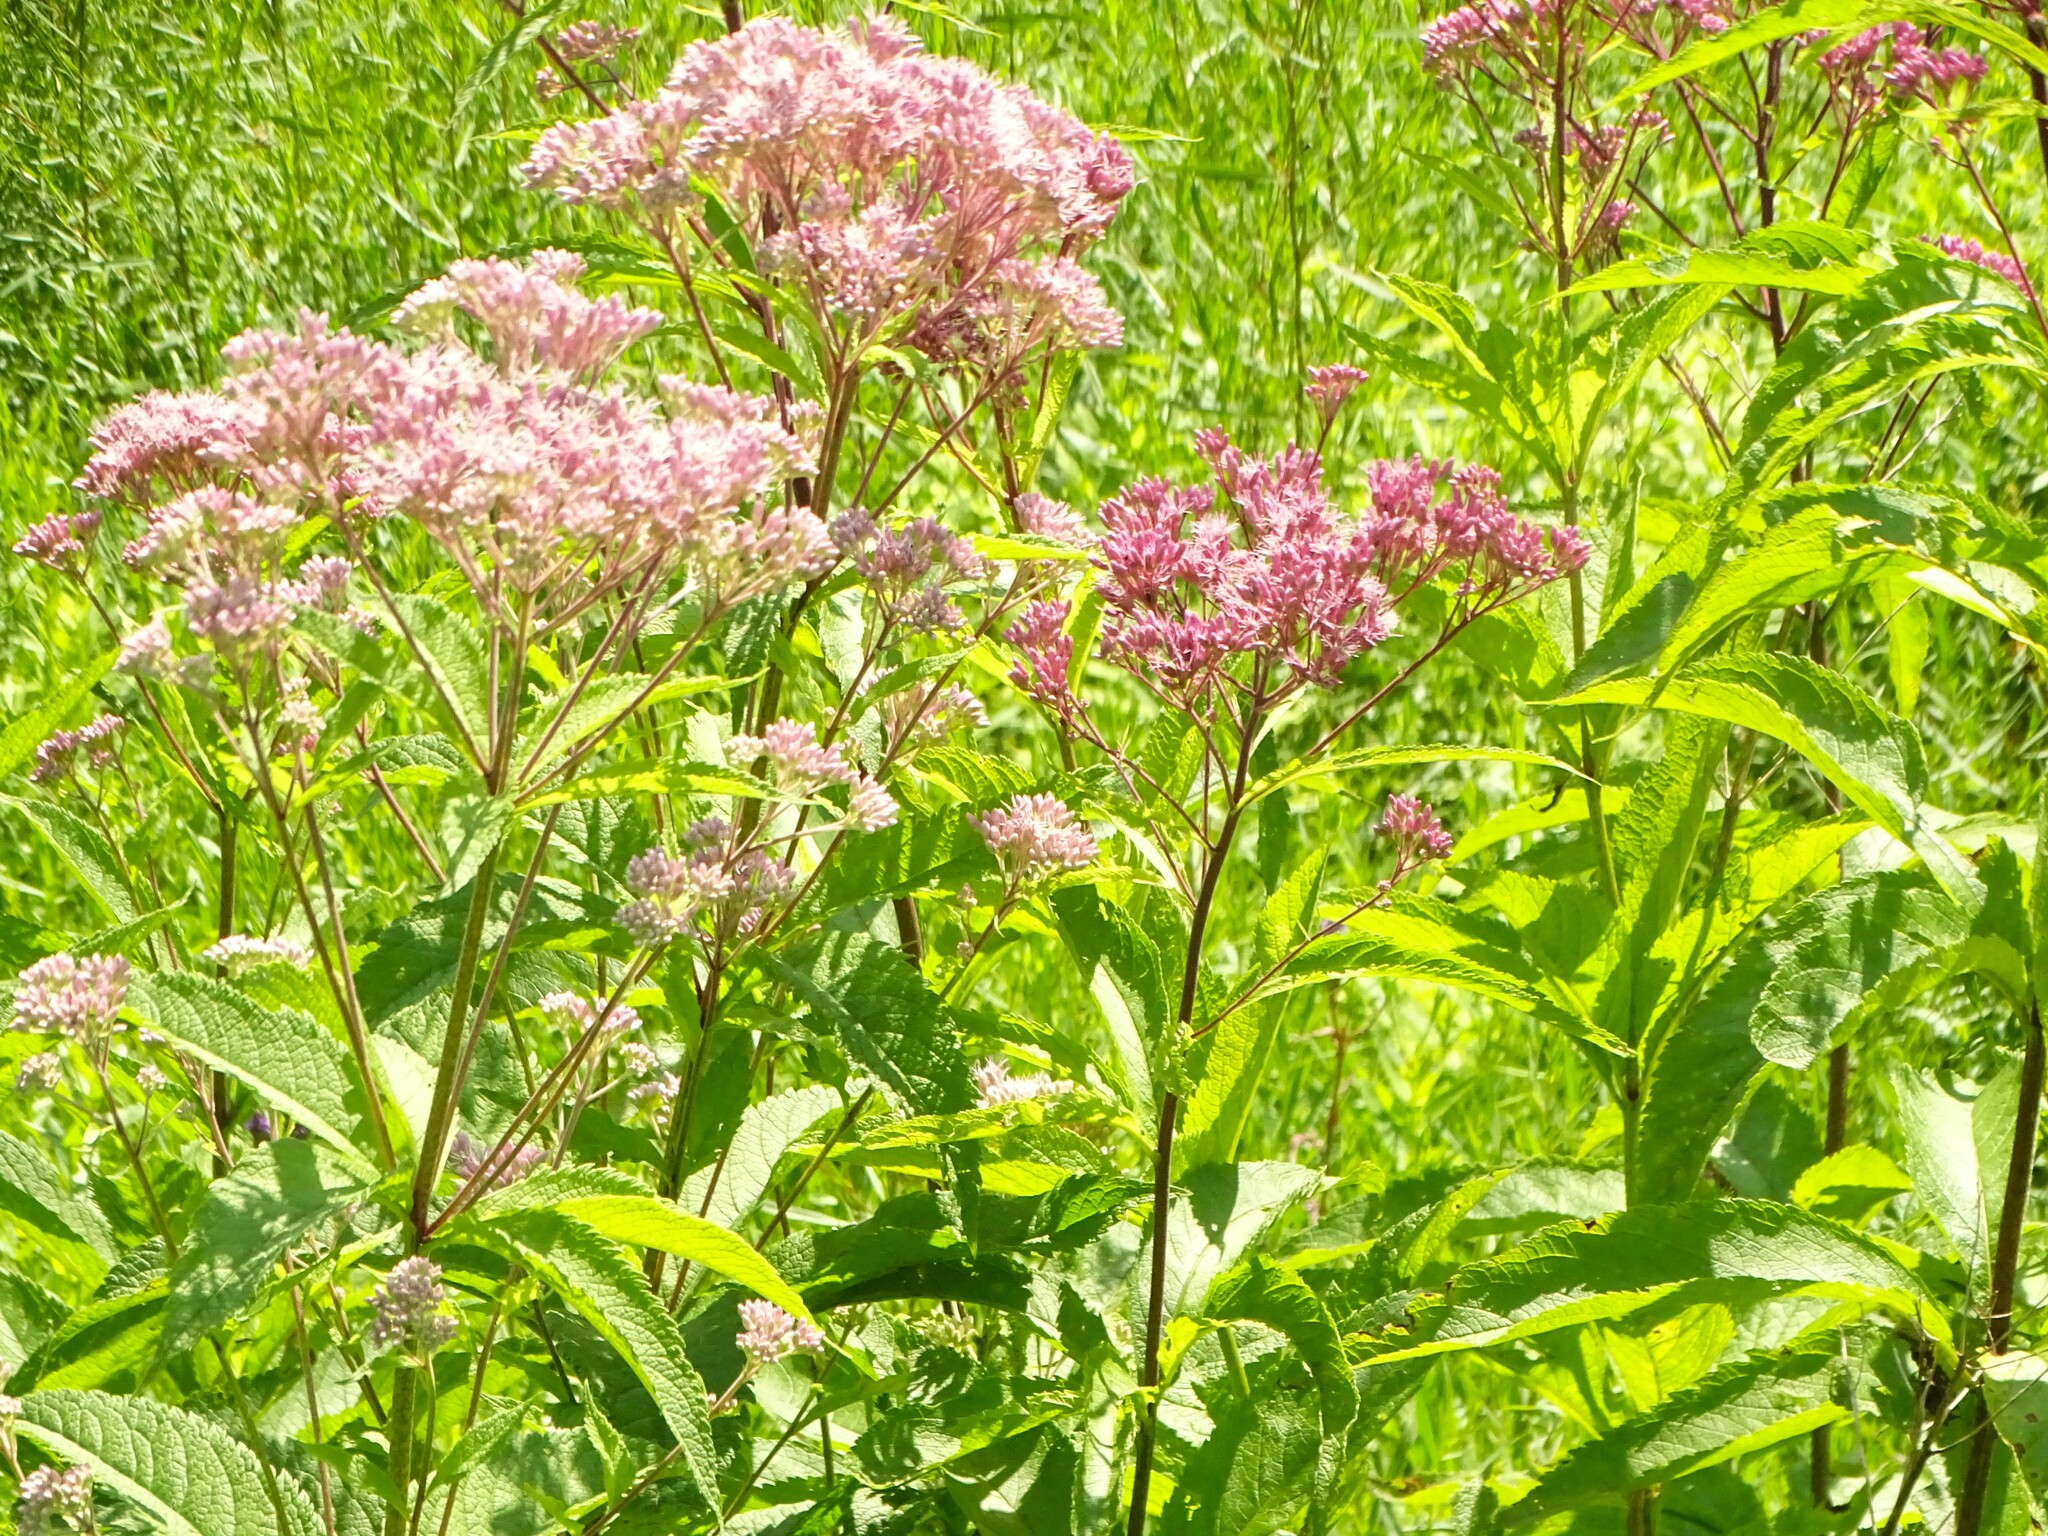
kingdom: Plantae
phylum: Tracheophyta
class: Magnoliopsida
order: Asterales
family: Asteraceae
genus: Eutrochium
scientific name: Eutrochium maculatum
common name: Spotted joe pye weed
